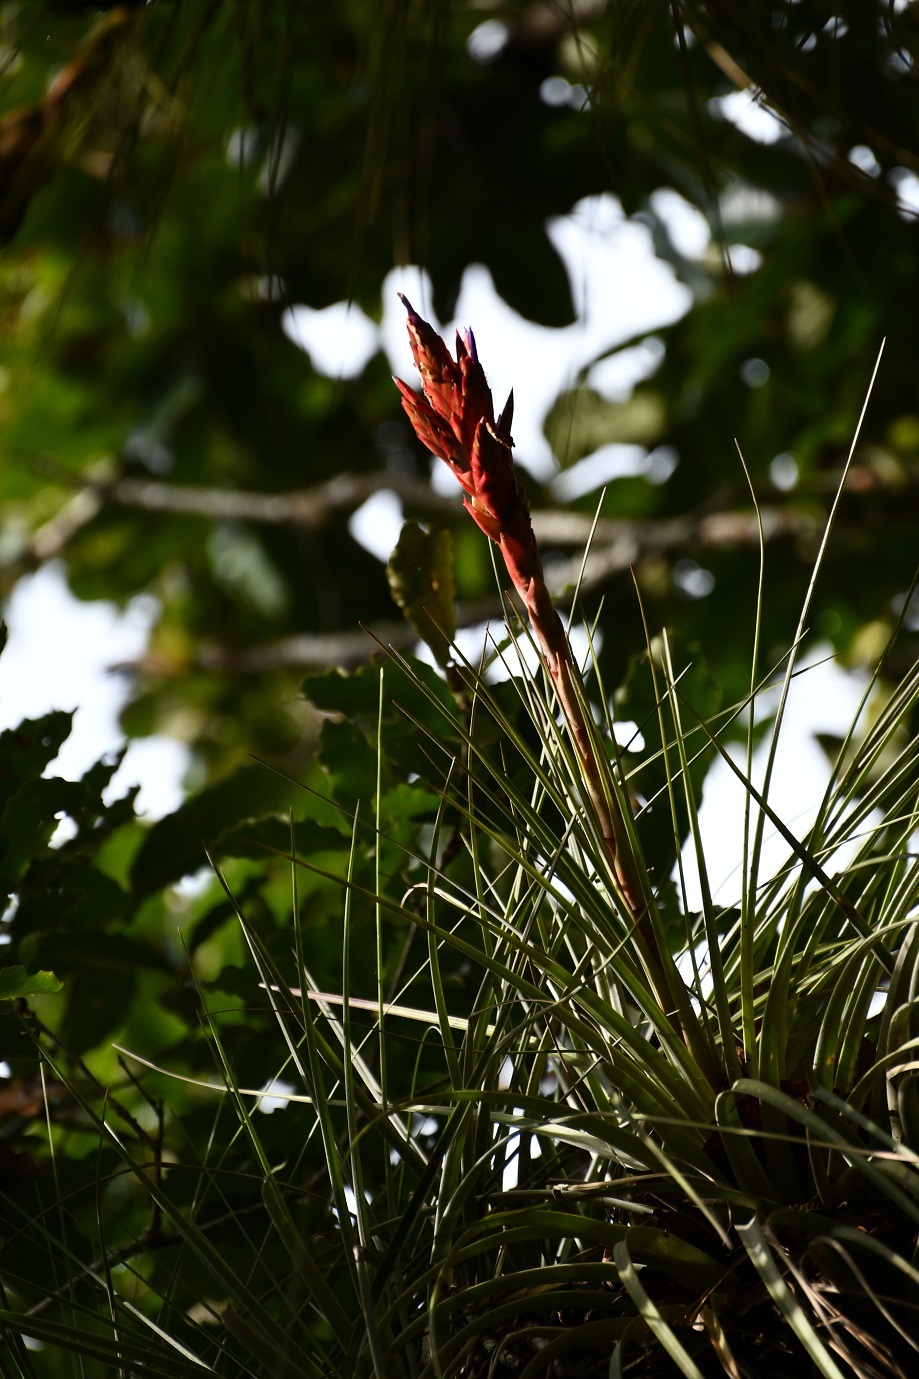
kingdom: Plantae
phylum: Tracheophyta
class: Liliopsida
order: Poales
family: Bromeliaceae
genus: Tillandsia
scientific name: Tillandsia polita
